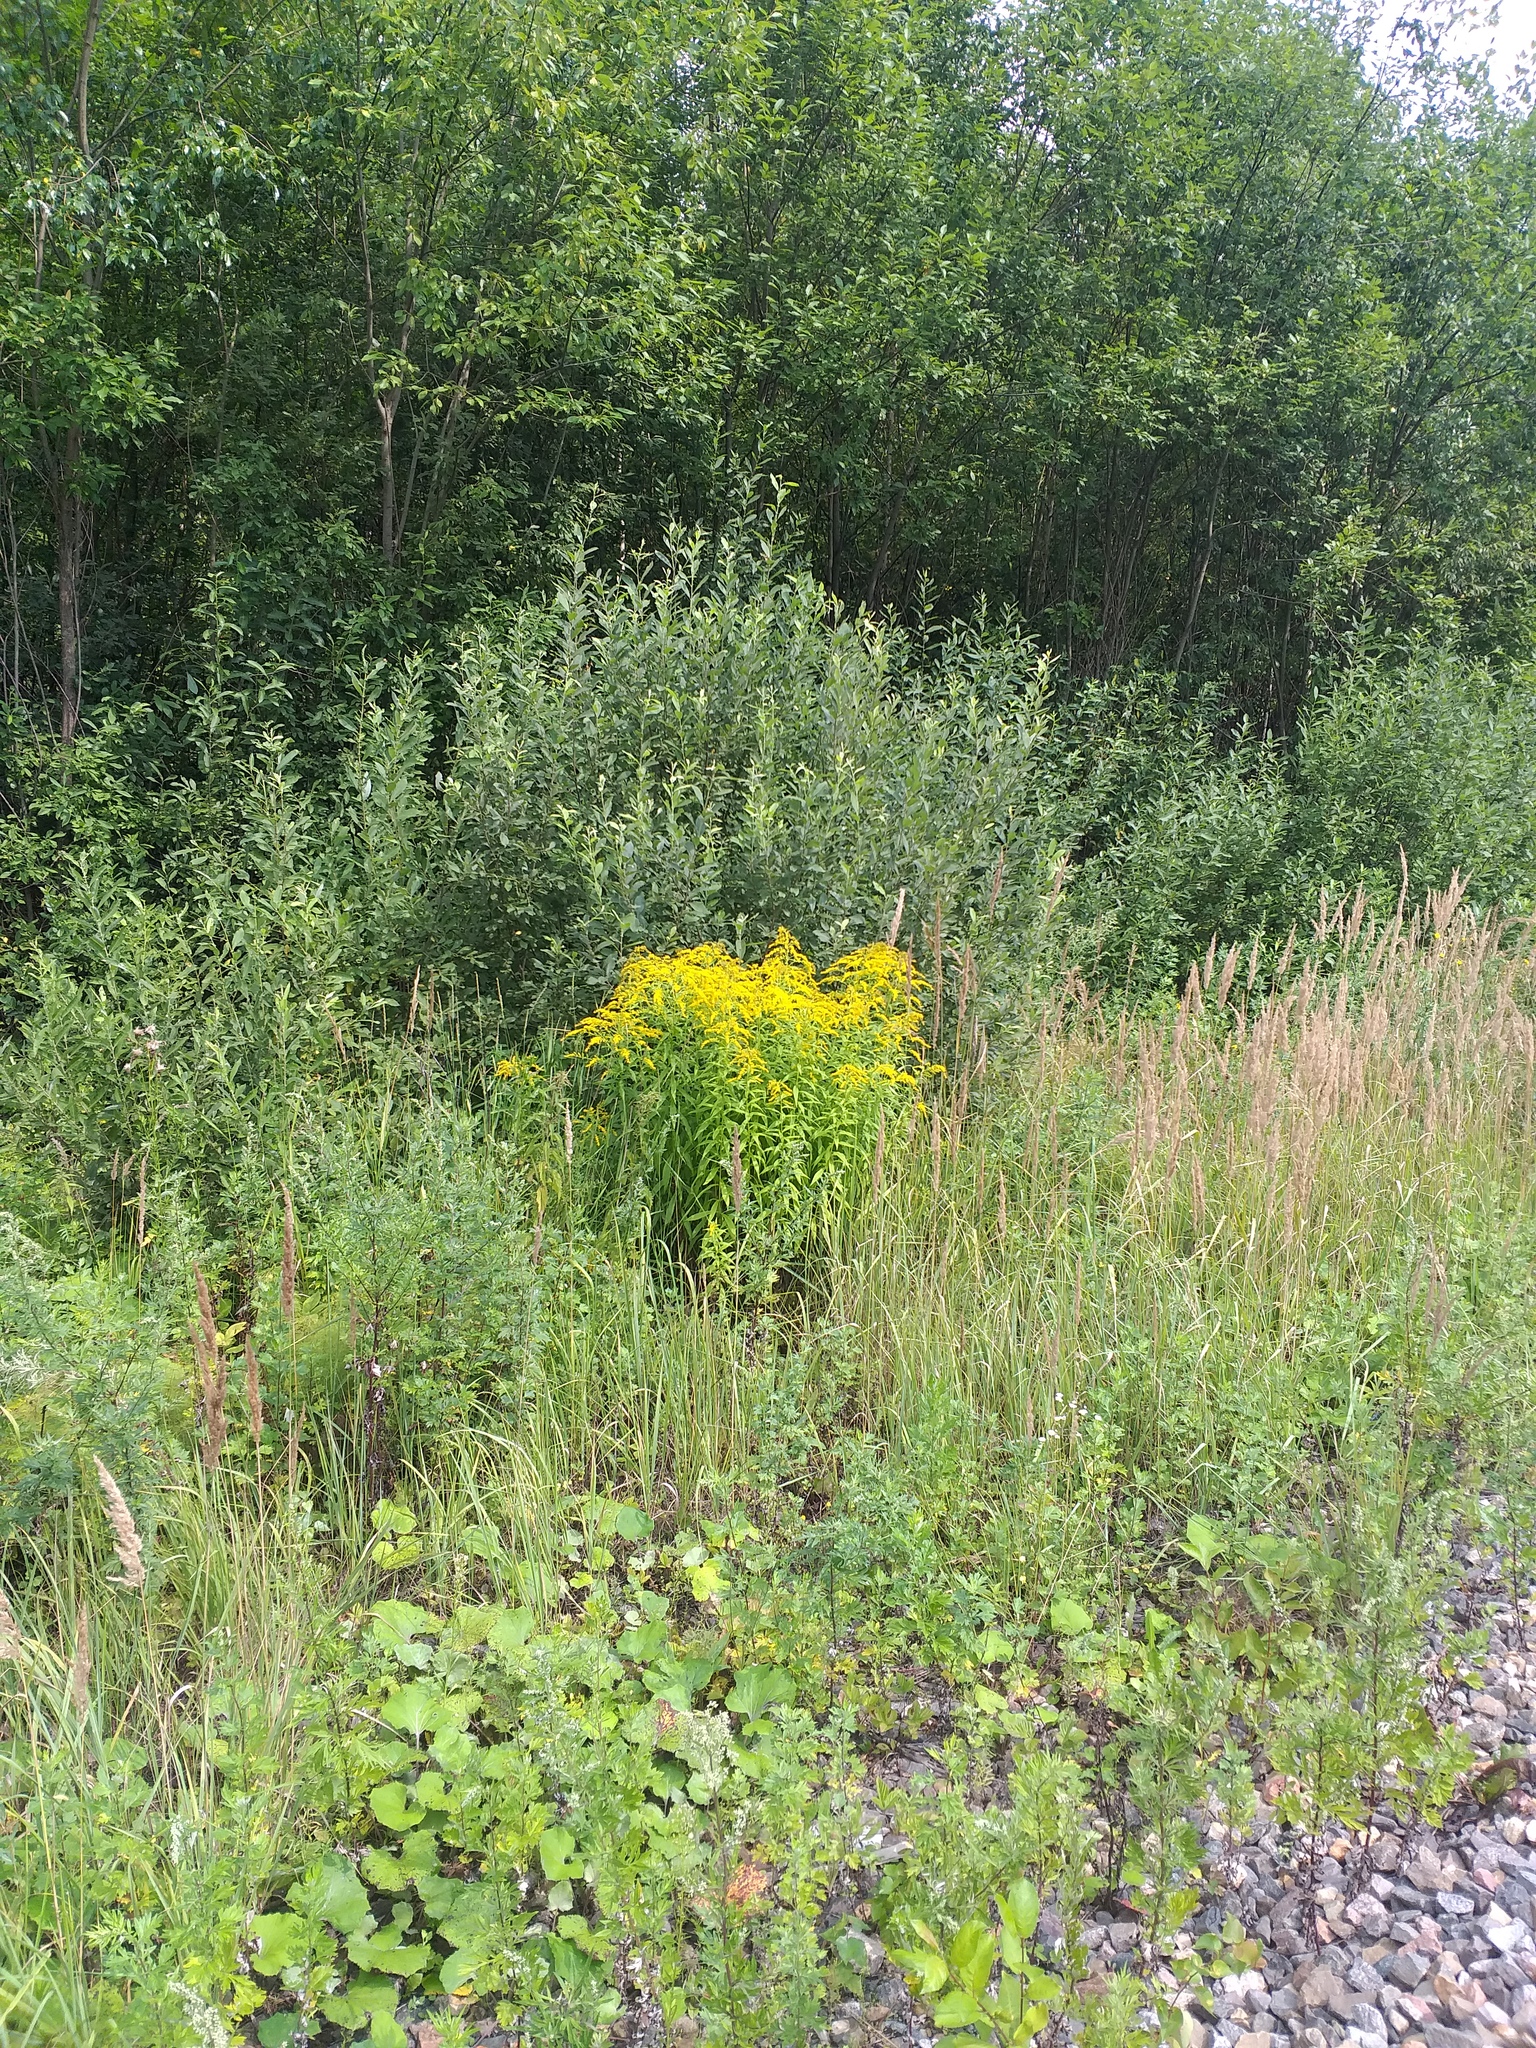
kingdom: Plantae
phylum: Tracheophyta
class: Magnoliopsida
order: Asterales
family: Asteraceae
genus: Solidago
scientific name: Solidago canadensis
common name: Canada goldenrod
